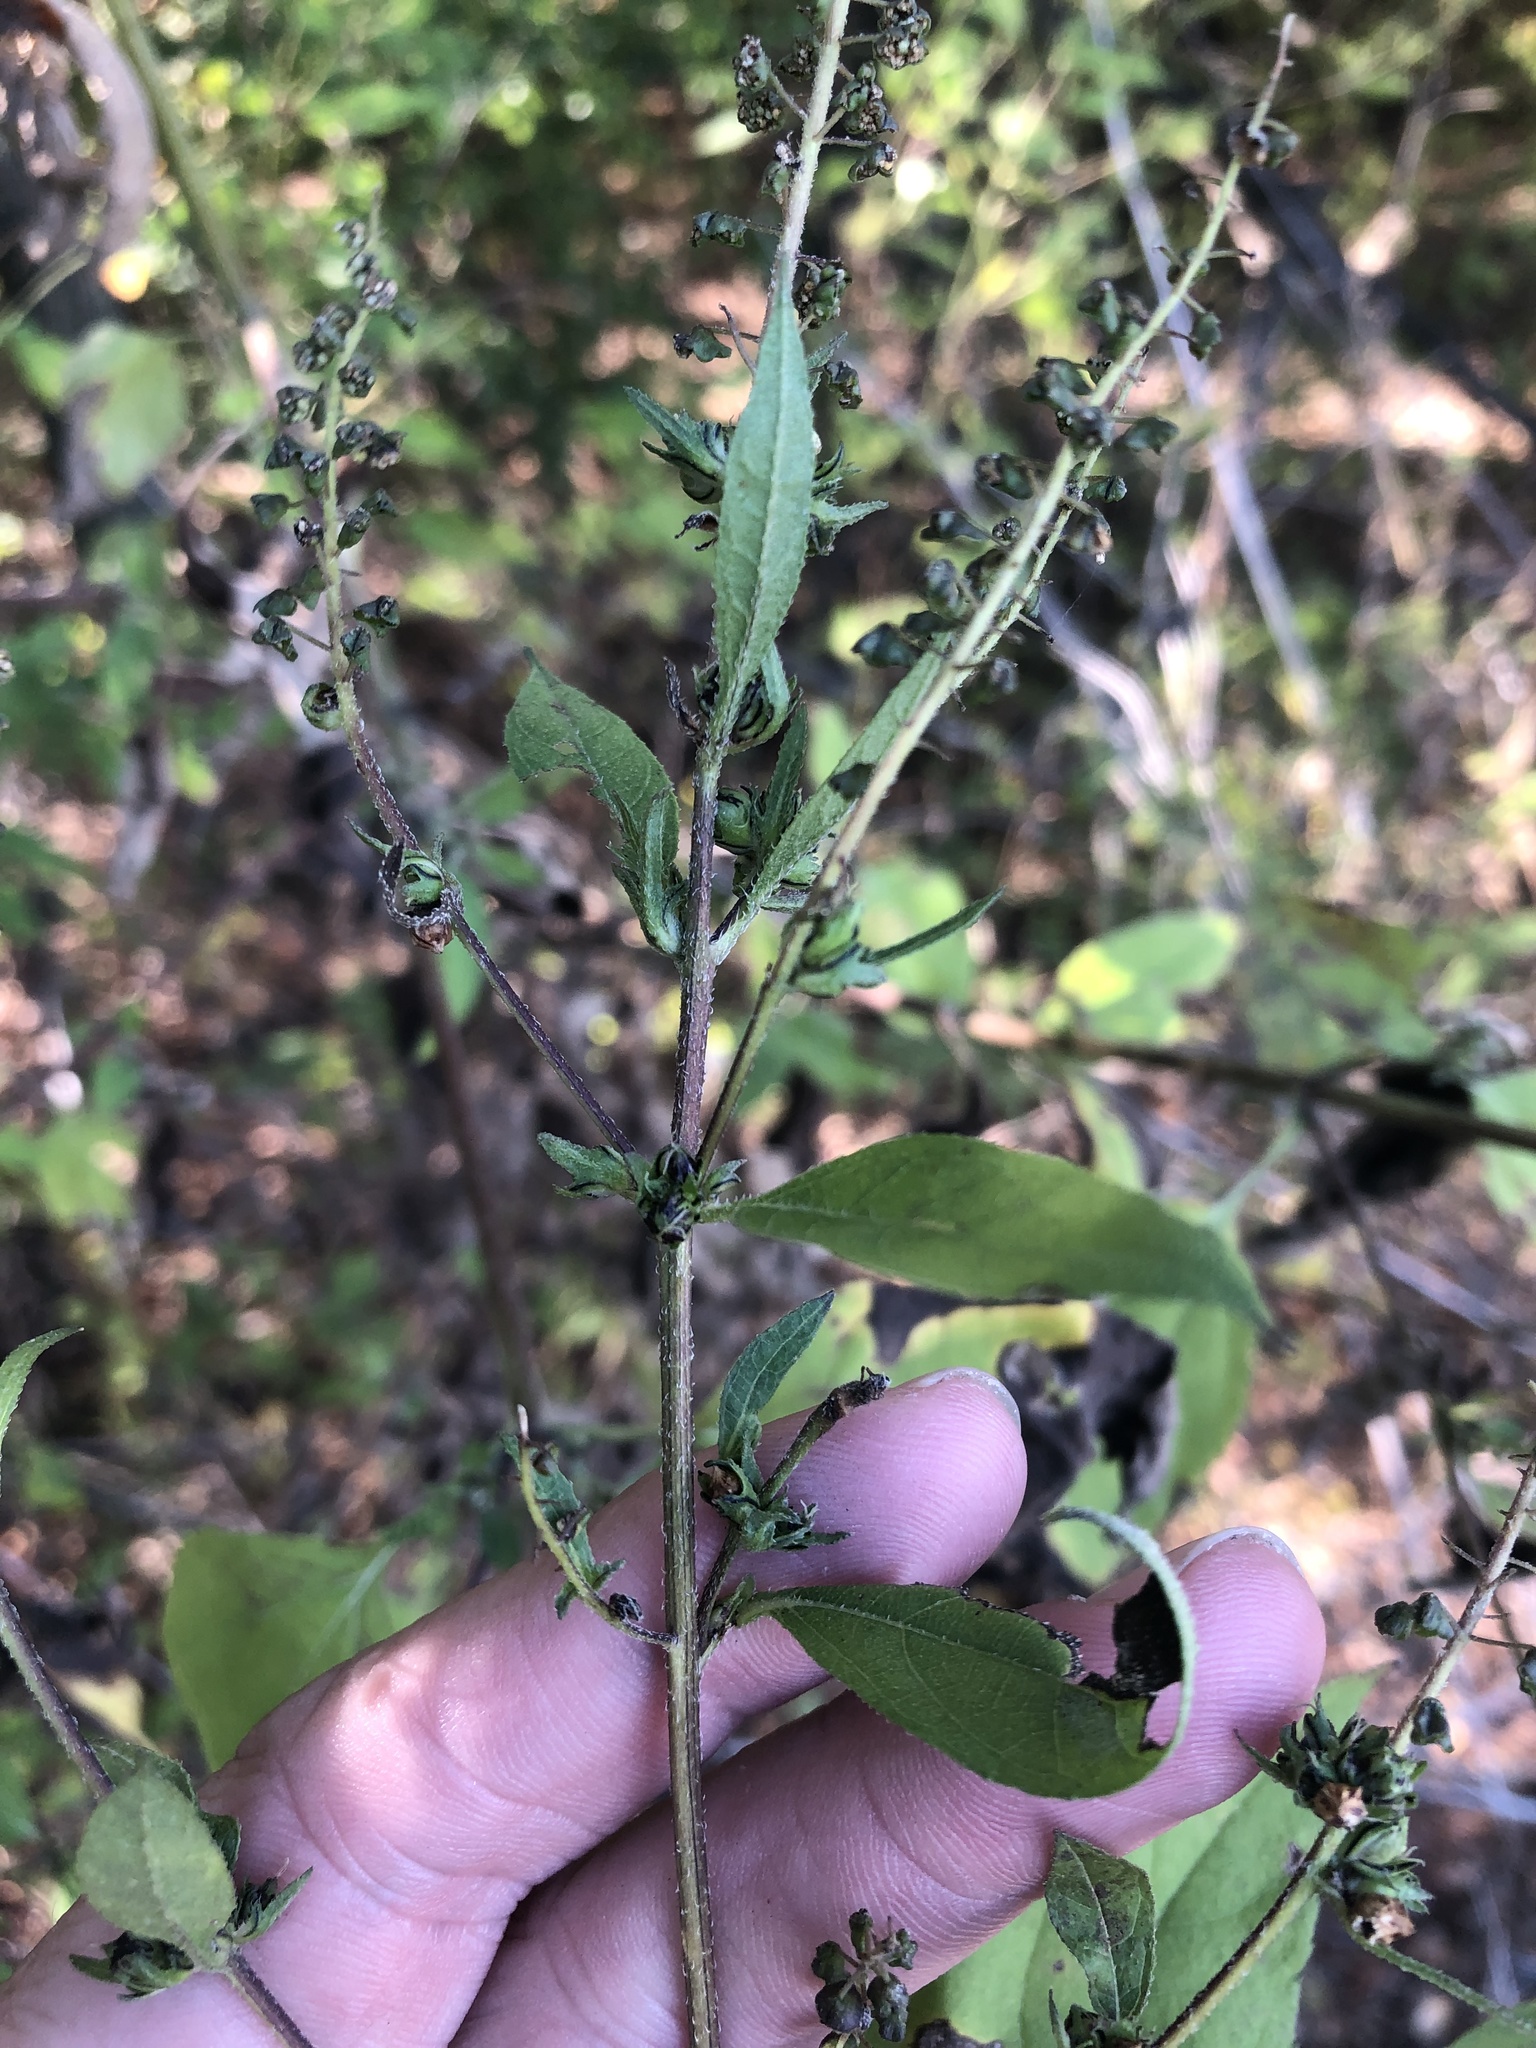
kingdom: Plantae
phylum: Tracheophyta
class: Magnoliopsida
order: Asterales
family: Asteraceae
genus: Ambrosia
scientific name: Ambrosia trifida
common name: Giant ragweed
